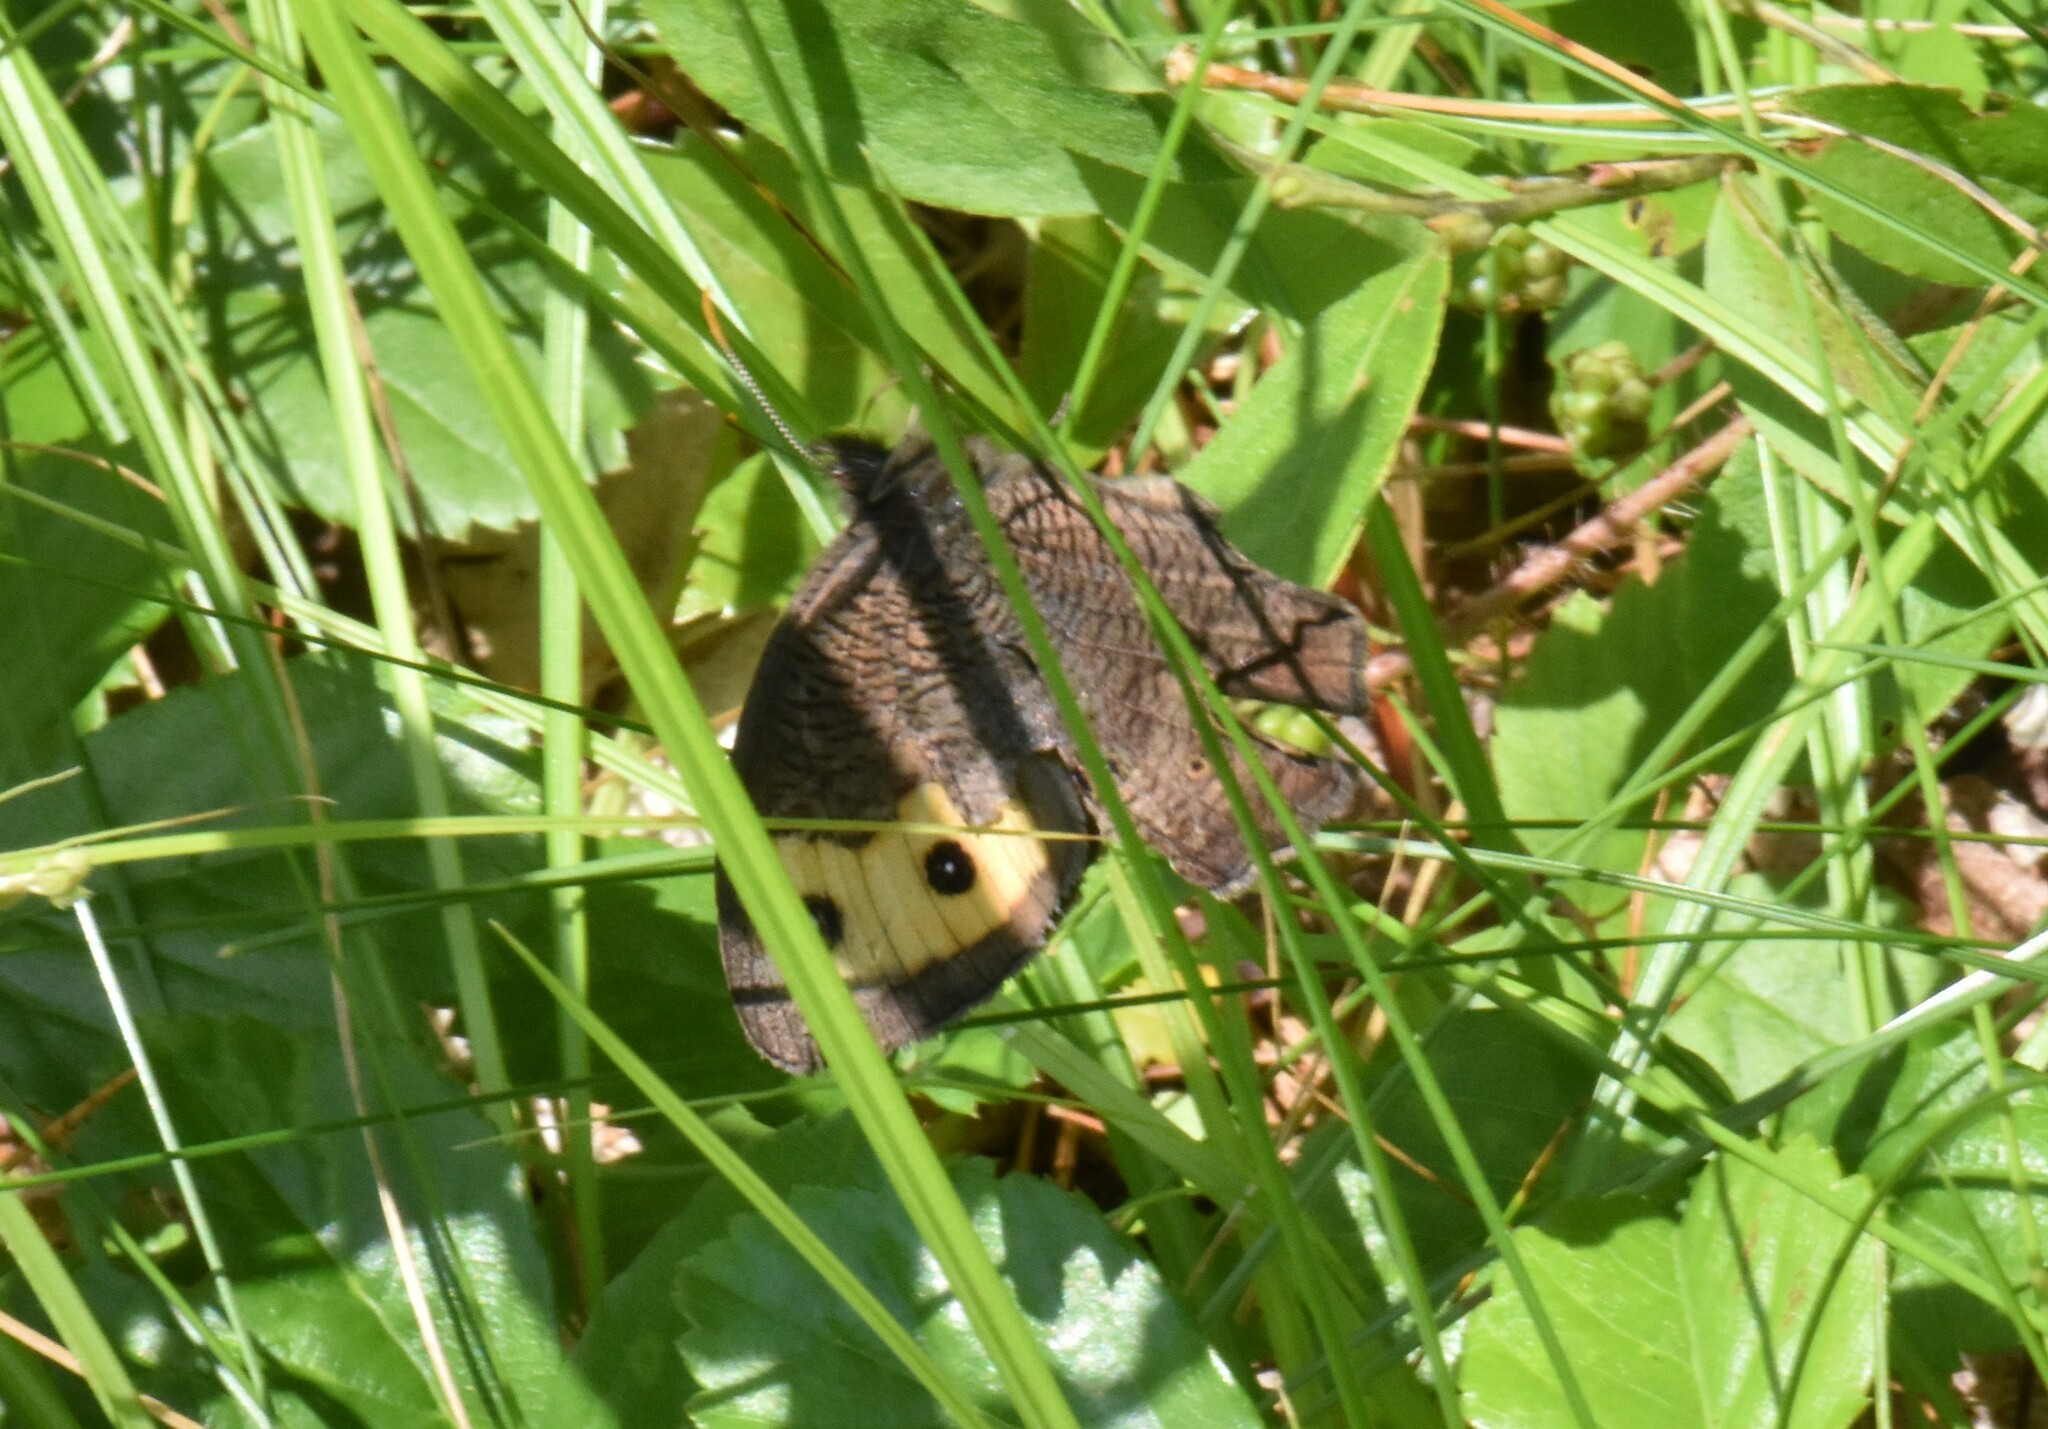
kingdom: Animalia
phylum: Arthropoda
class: Insecta
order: Lepidoptera
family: Nymphalidae
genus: Cercyonis
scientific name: Cercyonis pegala
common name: Common wood-nymph
